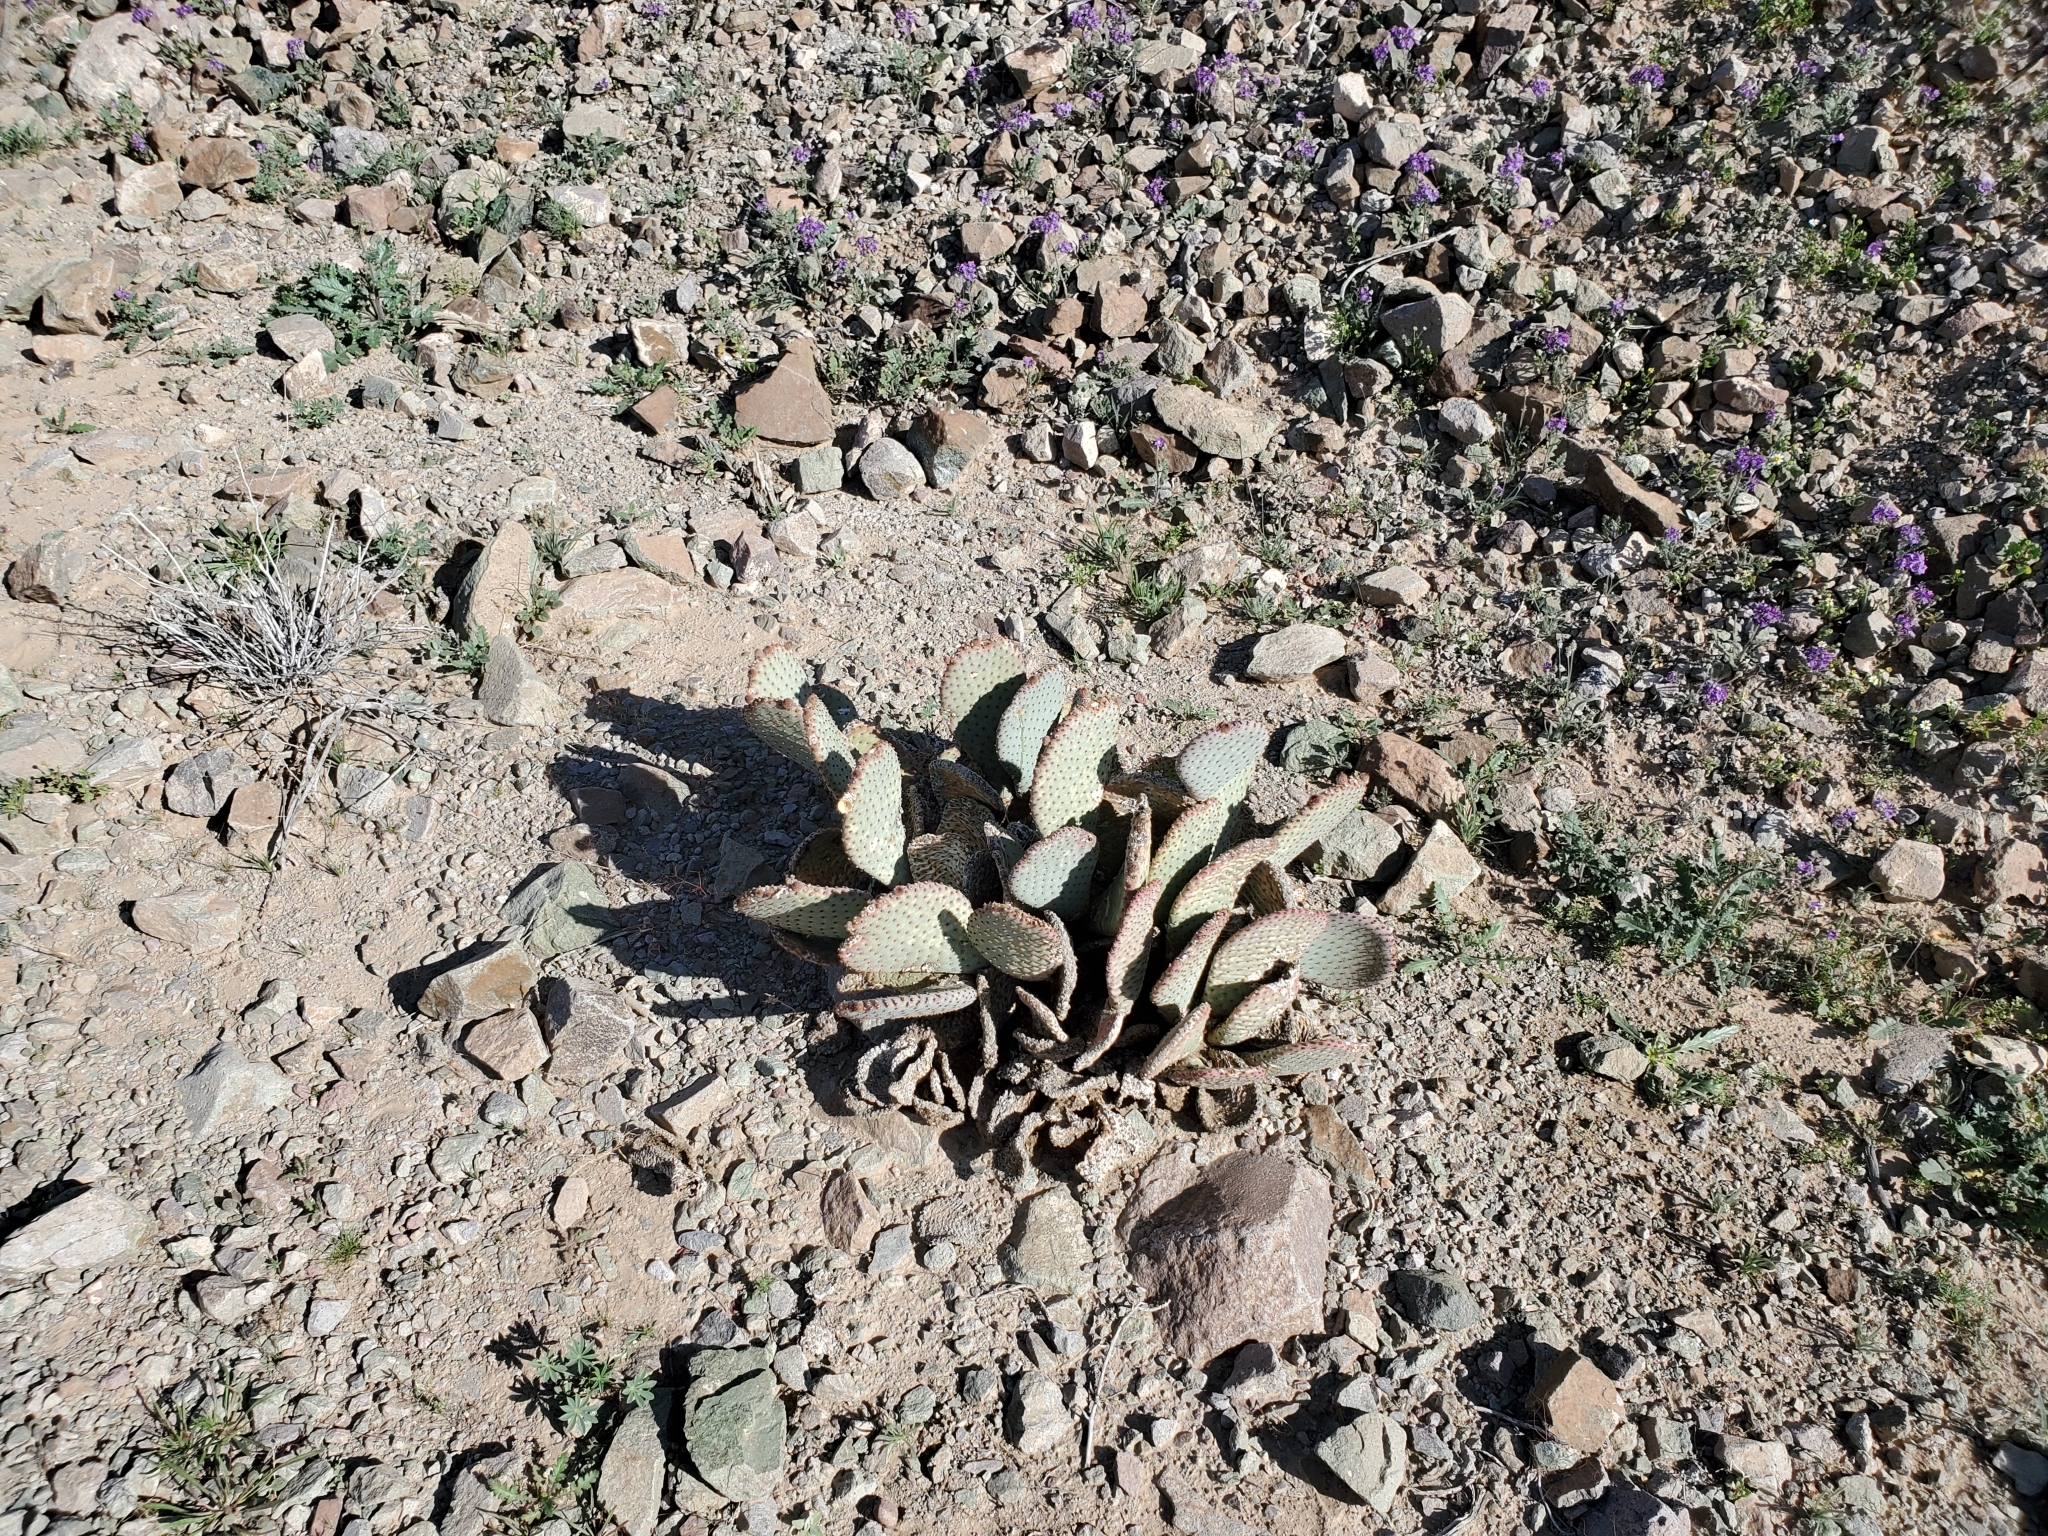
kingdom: Plantae
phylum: Tracheophyta
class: Magnoliopsida
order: Caryophyllales
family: Cactaceae
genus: Opuntia
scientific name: Opuntia basilaris
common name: Beavertail prickly-pear
